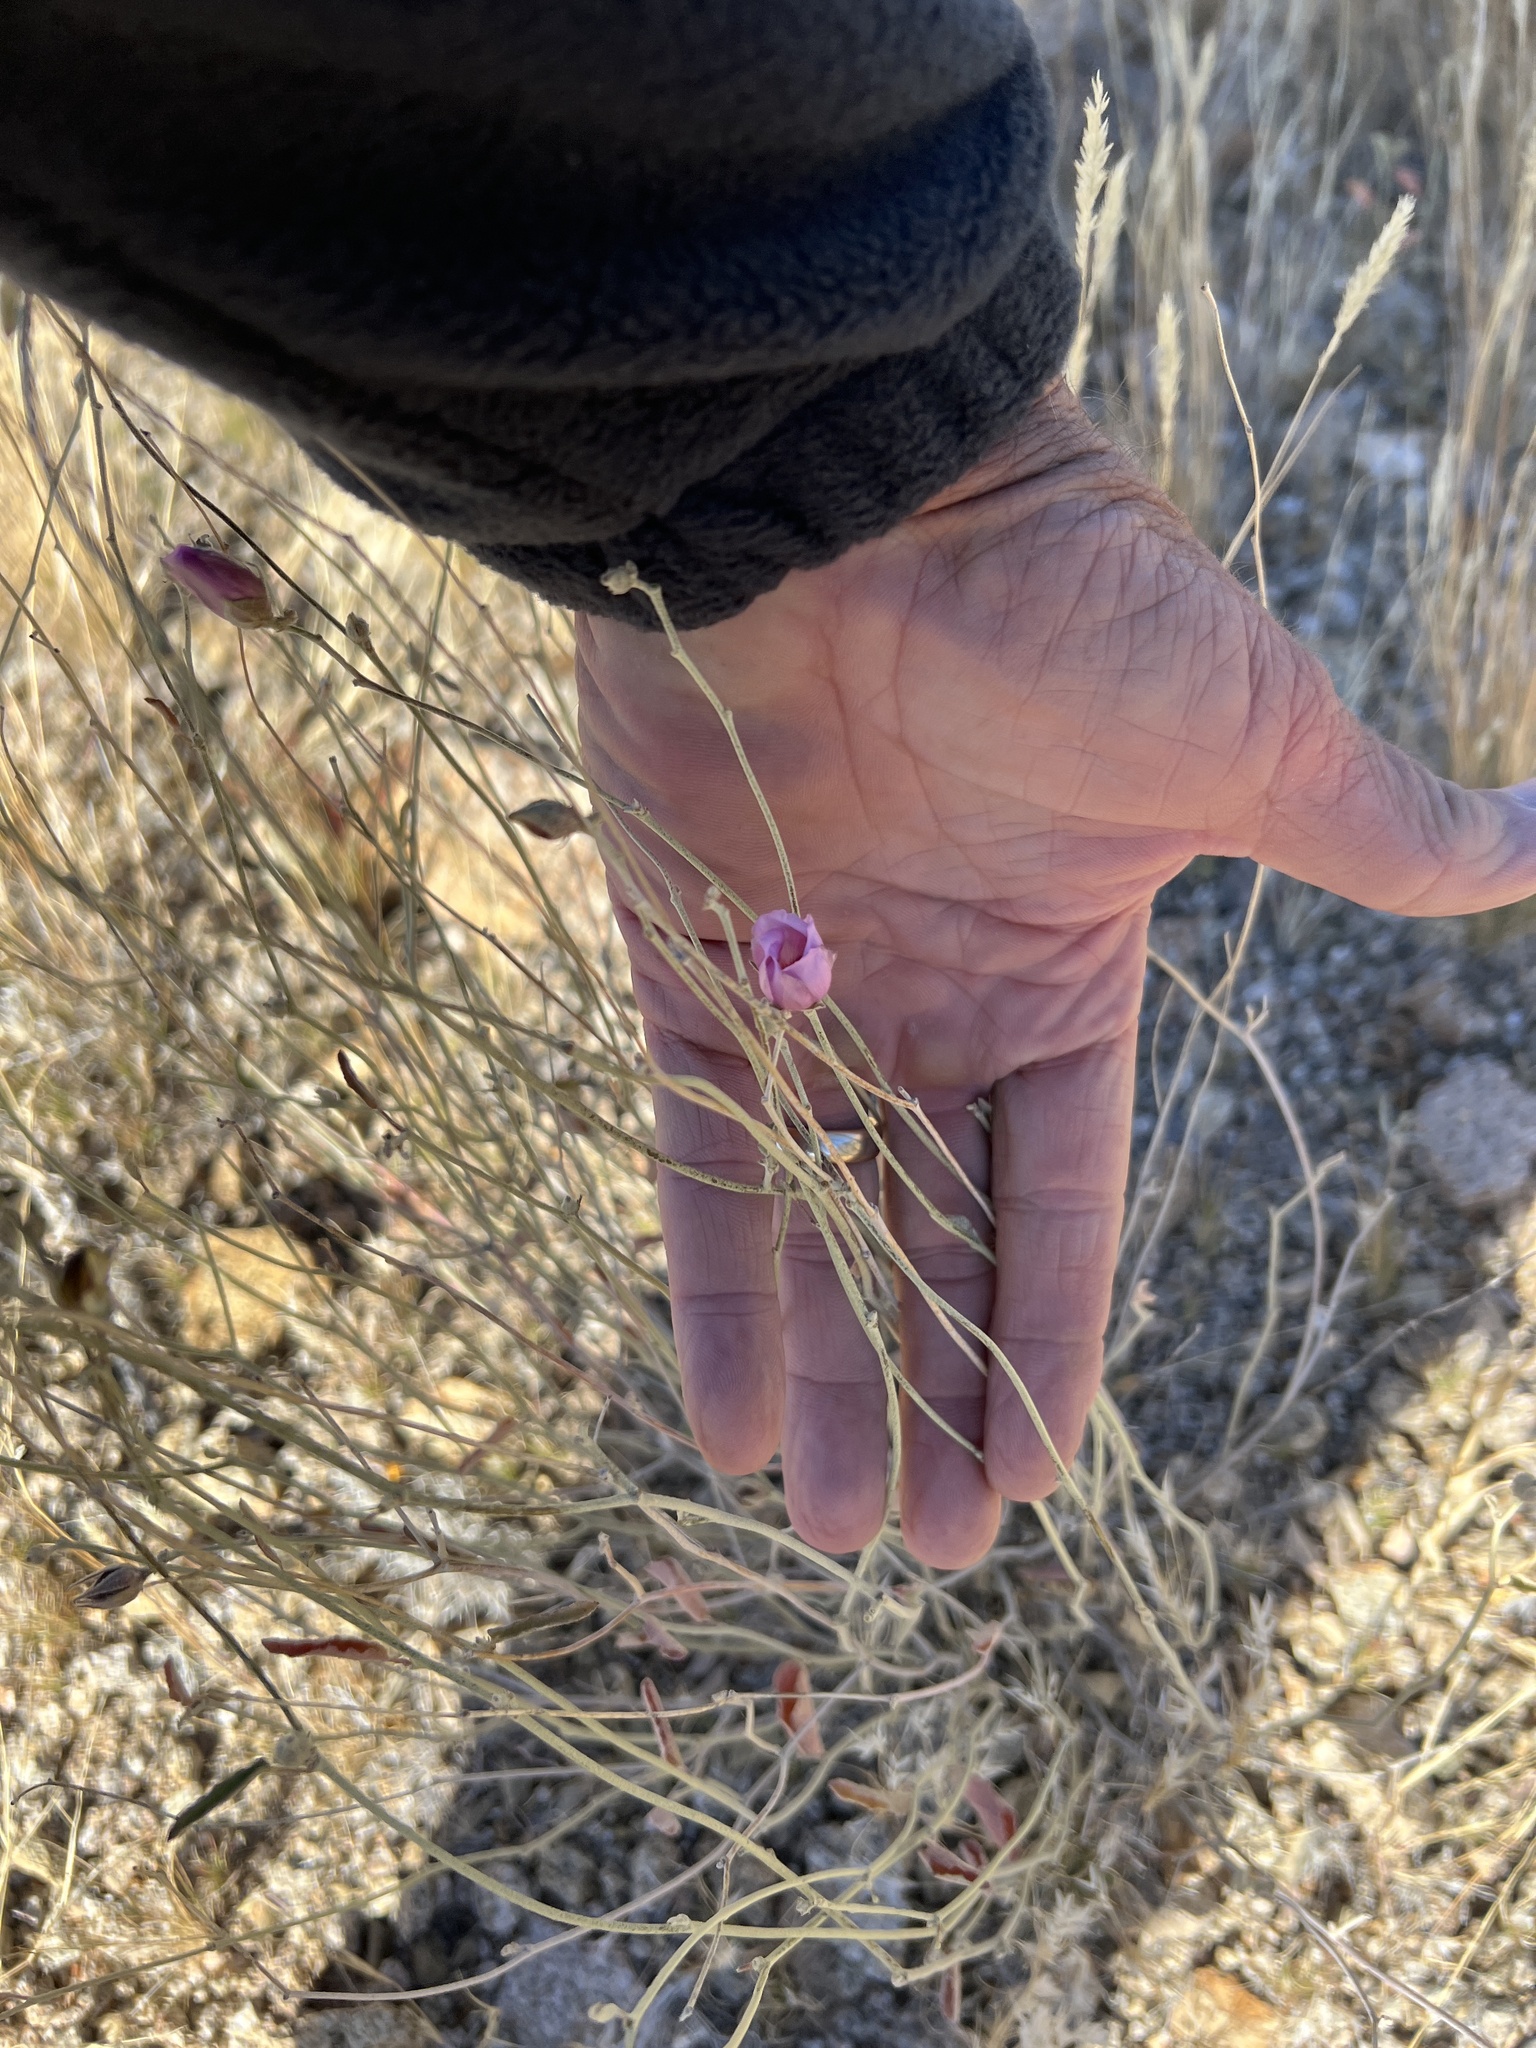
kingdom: Plantae
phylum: Tracheophyta
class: Magnoliopsida
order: Malvales
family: Malvaceae
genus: Hibiscus
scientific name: Hibiscus denudatus
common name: Paleface
